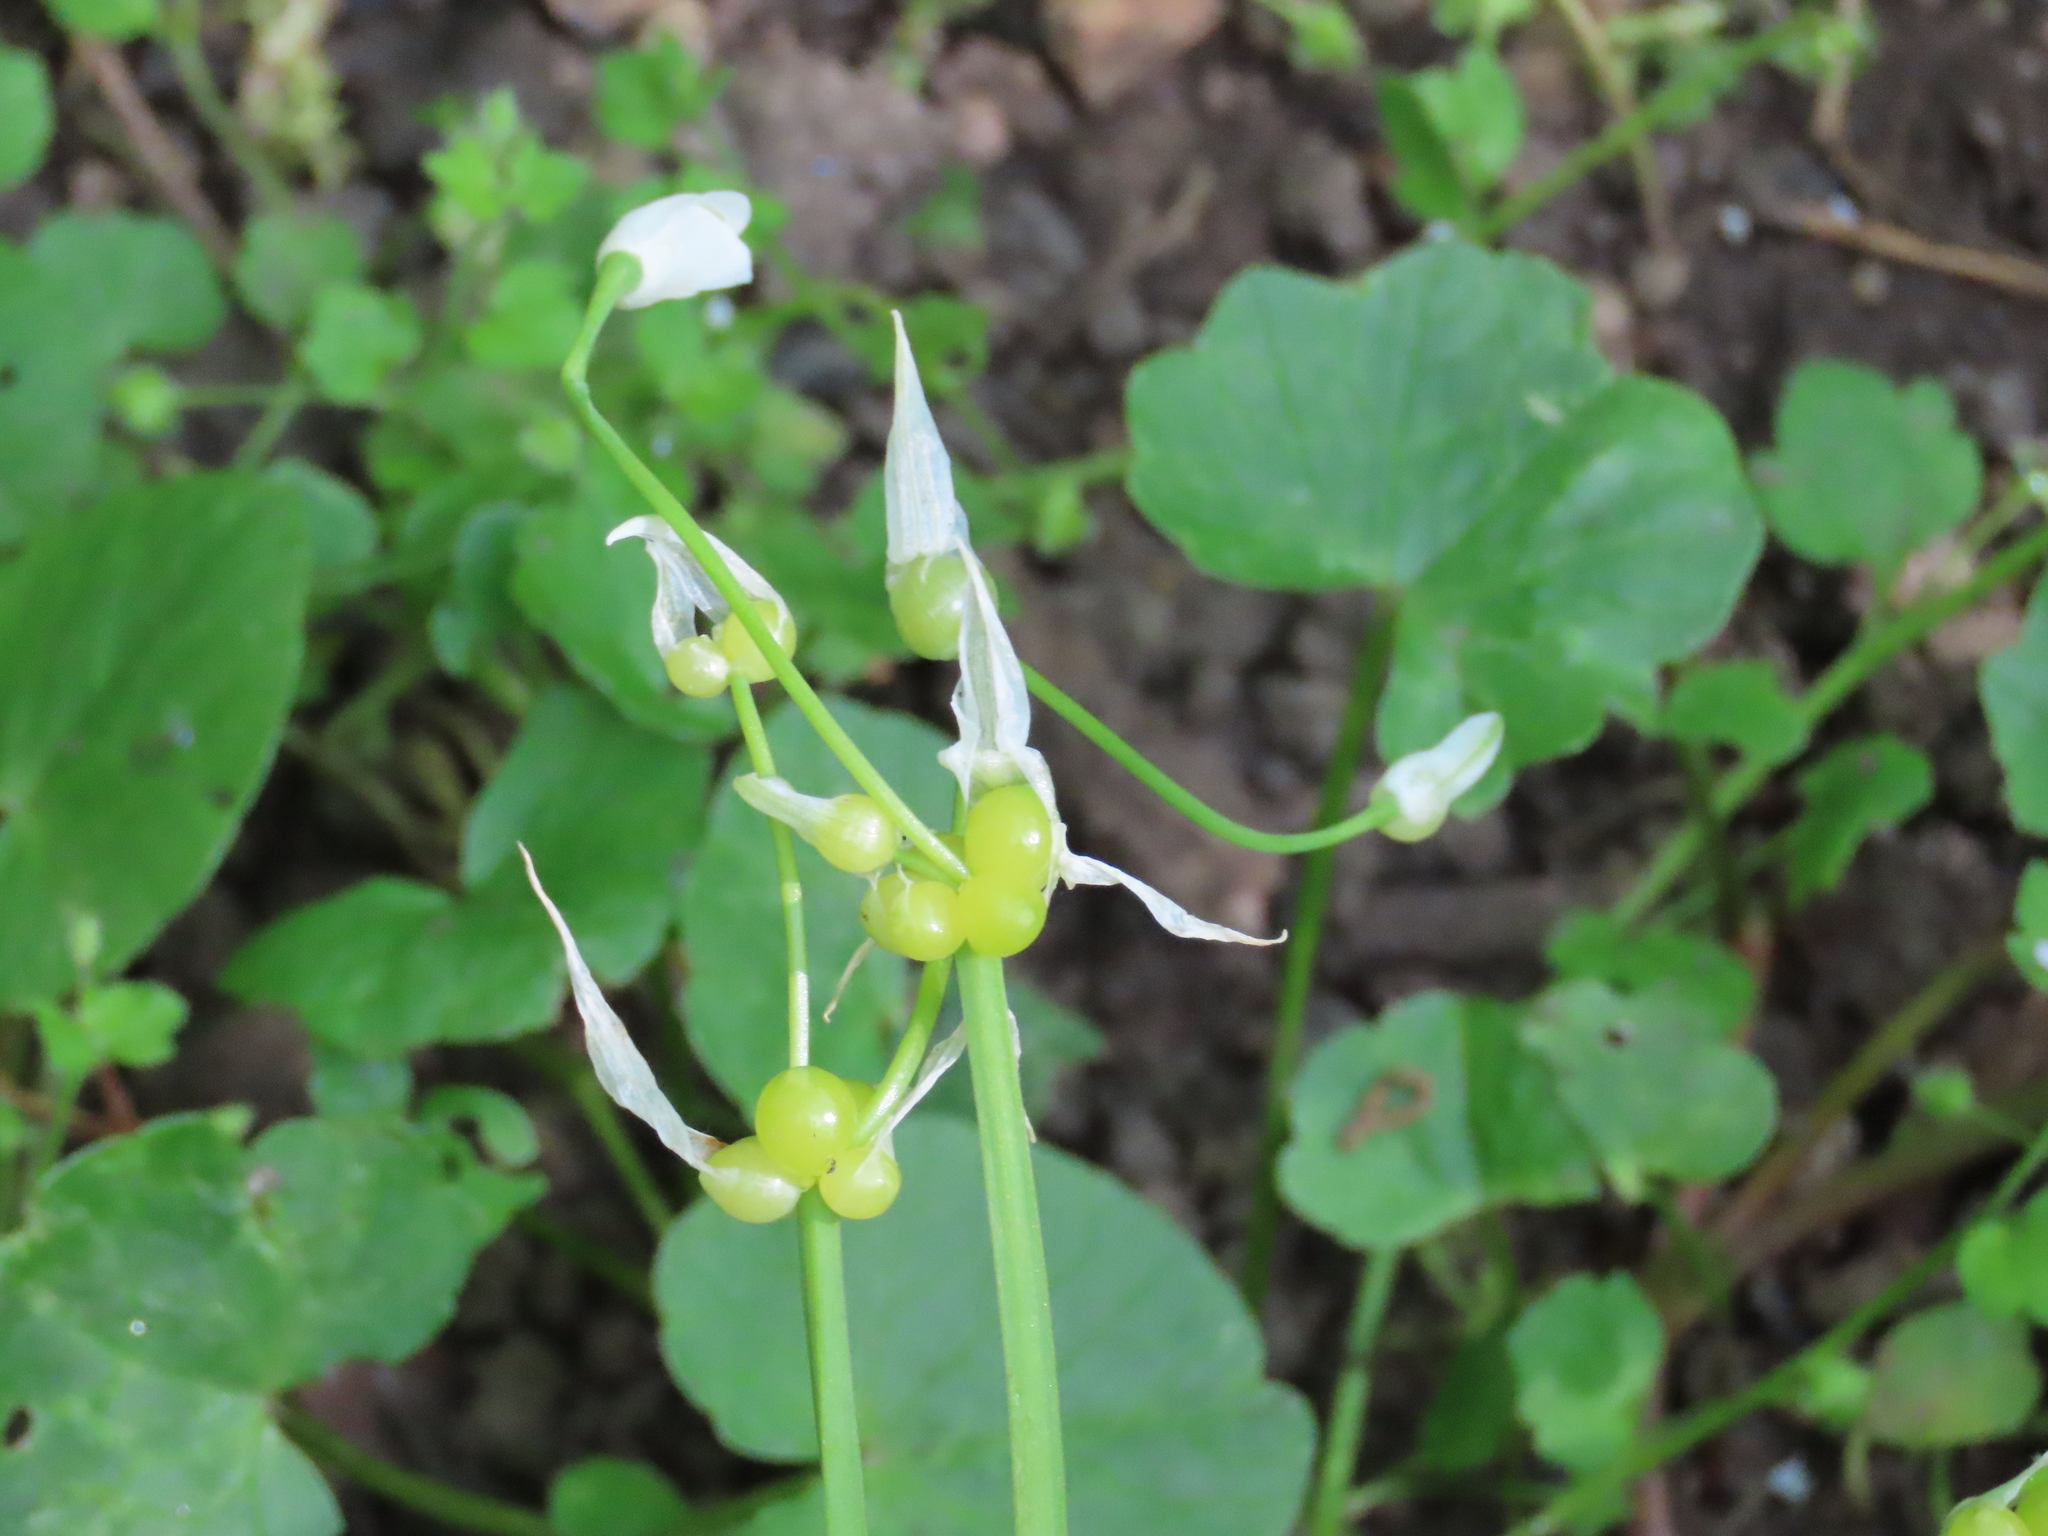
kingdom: Plantae
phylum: Tracheophyta
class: Liliopsida
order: Asparagales
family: Amaryllidaceae
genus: Allium
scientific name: Allium paradoxum
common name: Few-flowered garlic
